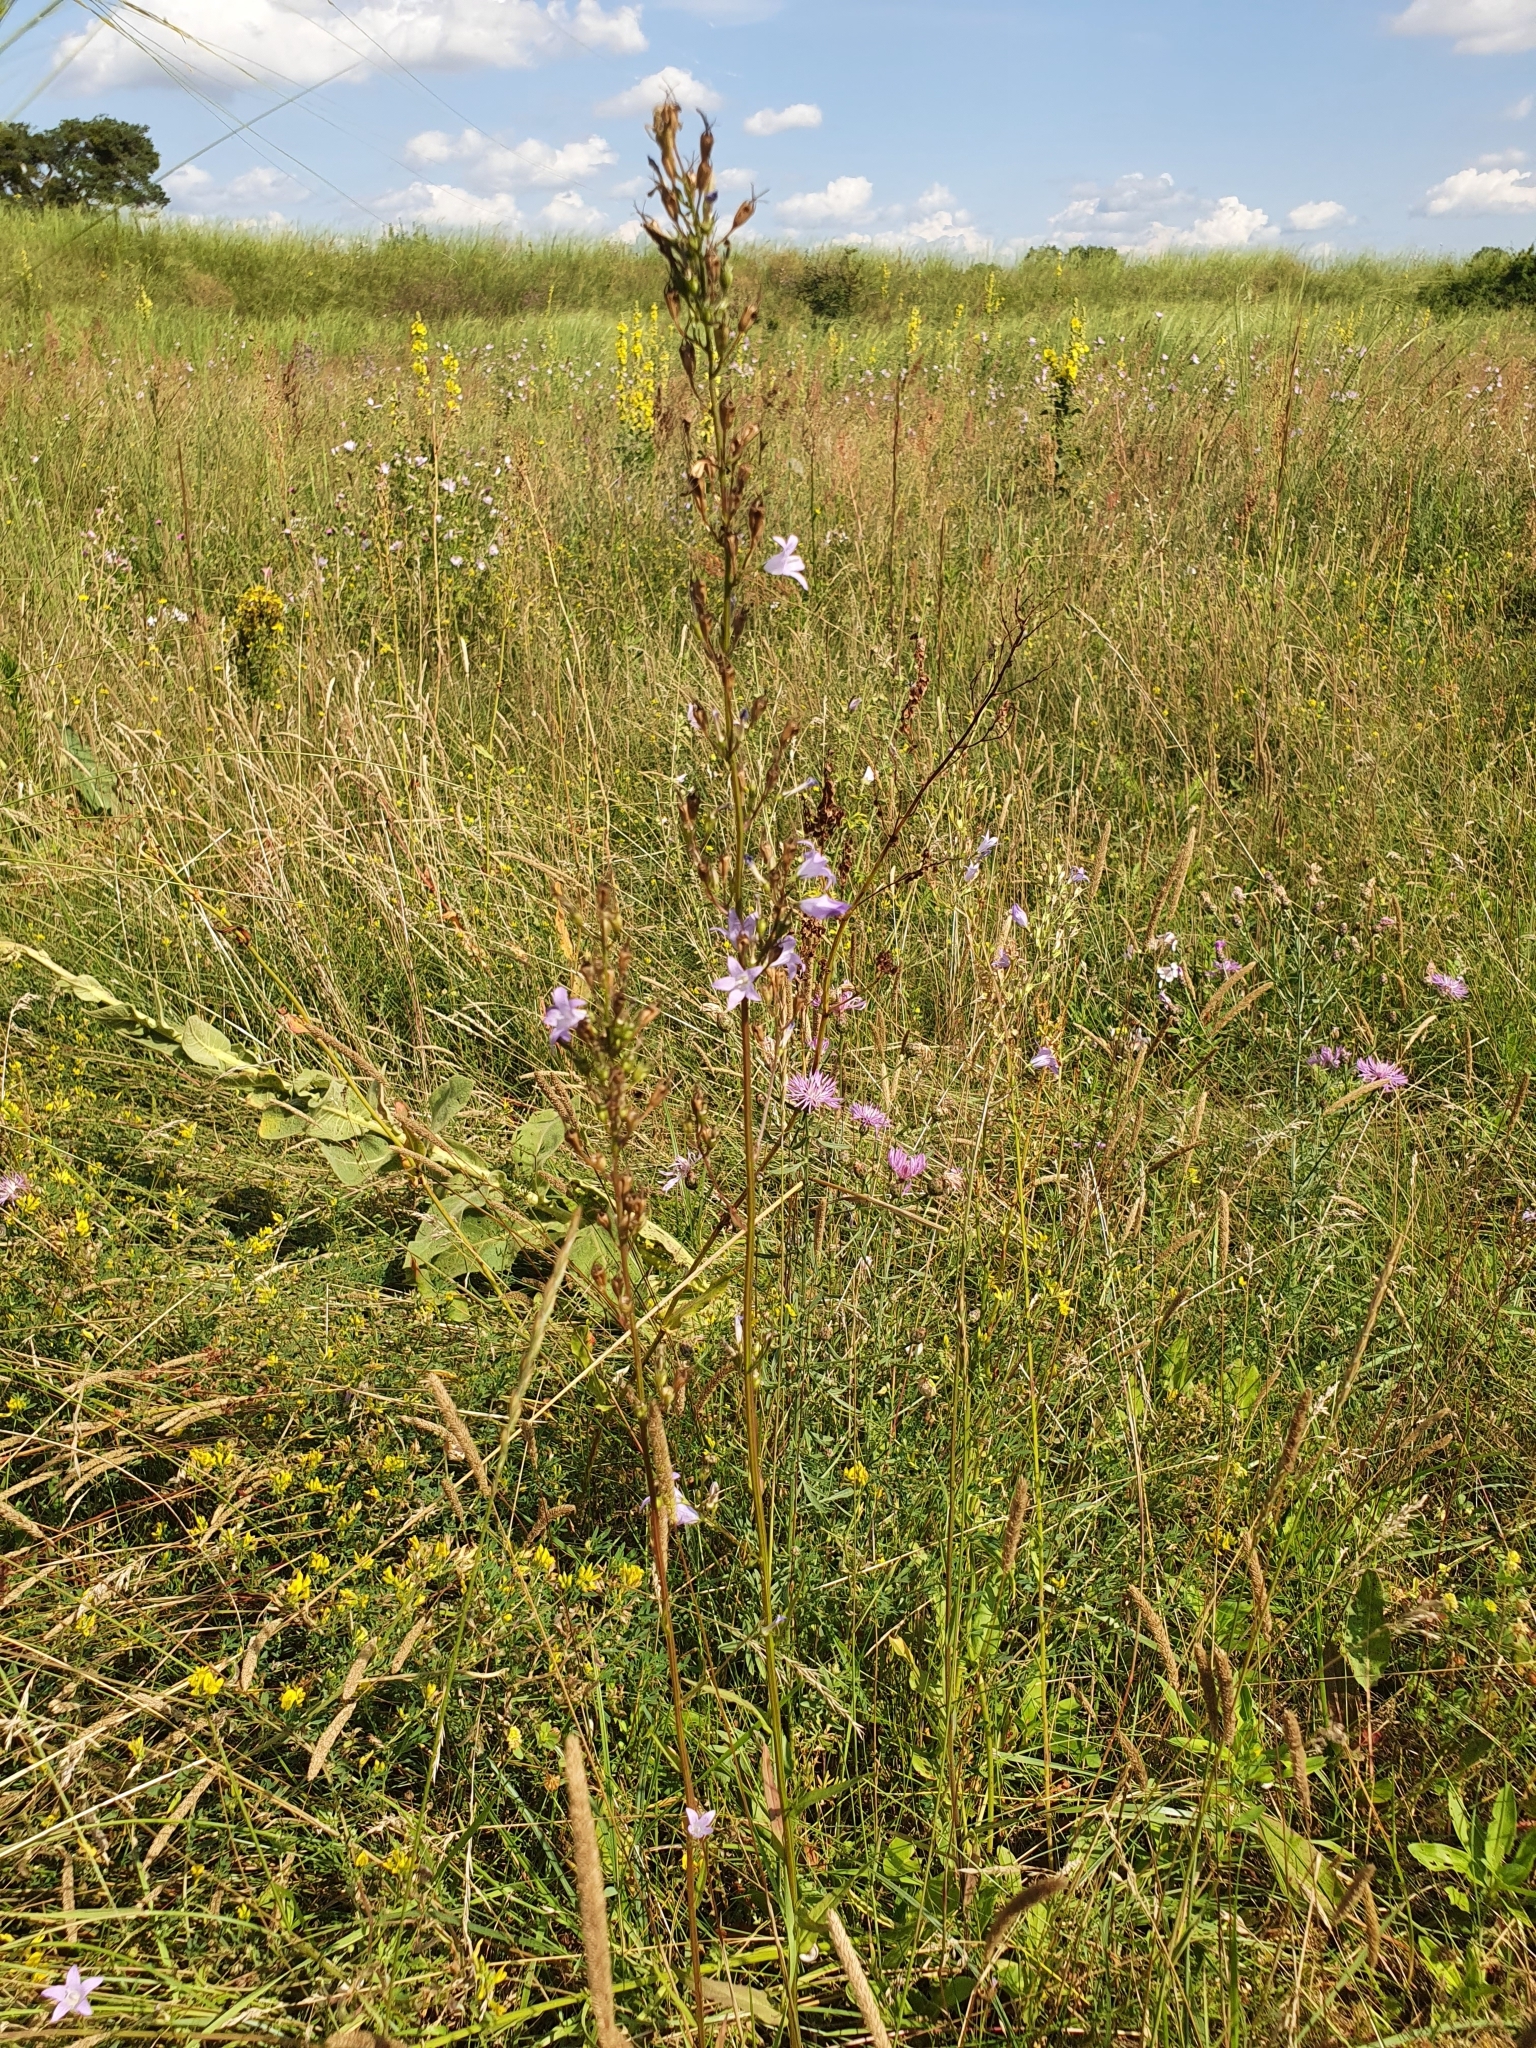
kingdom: Plantae
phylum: Tracheophyta
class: Magnoliopsida
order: Asterales
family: Campanulaceae
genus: Campanula
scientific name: Campanula rapunculus
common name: Rampion bellflower
